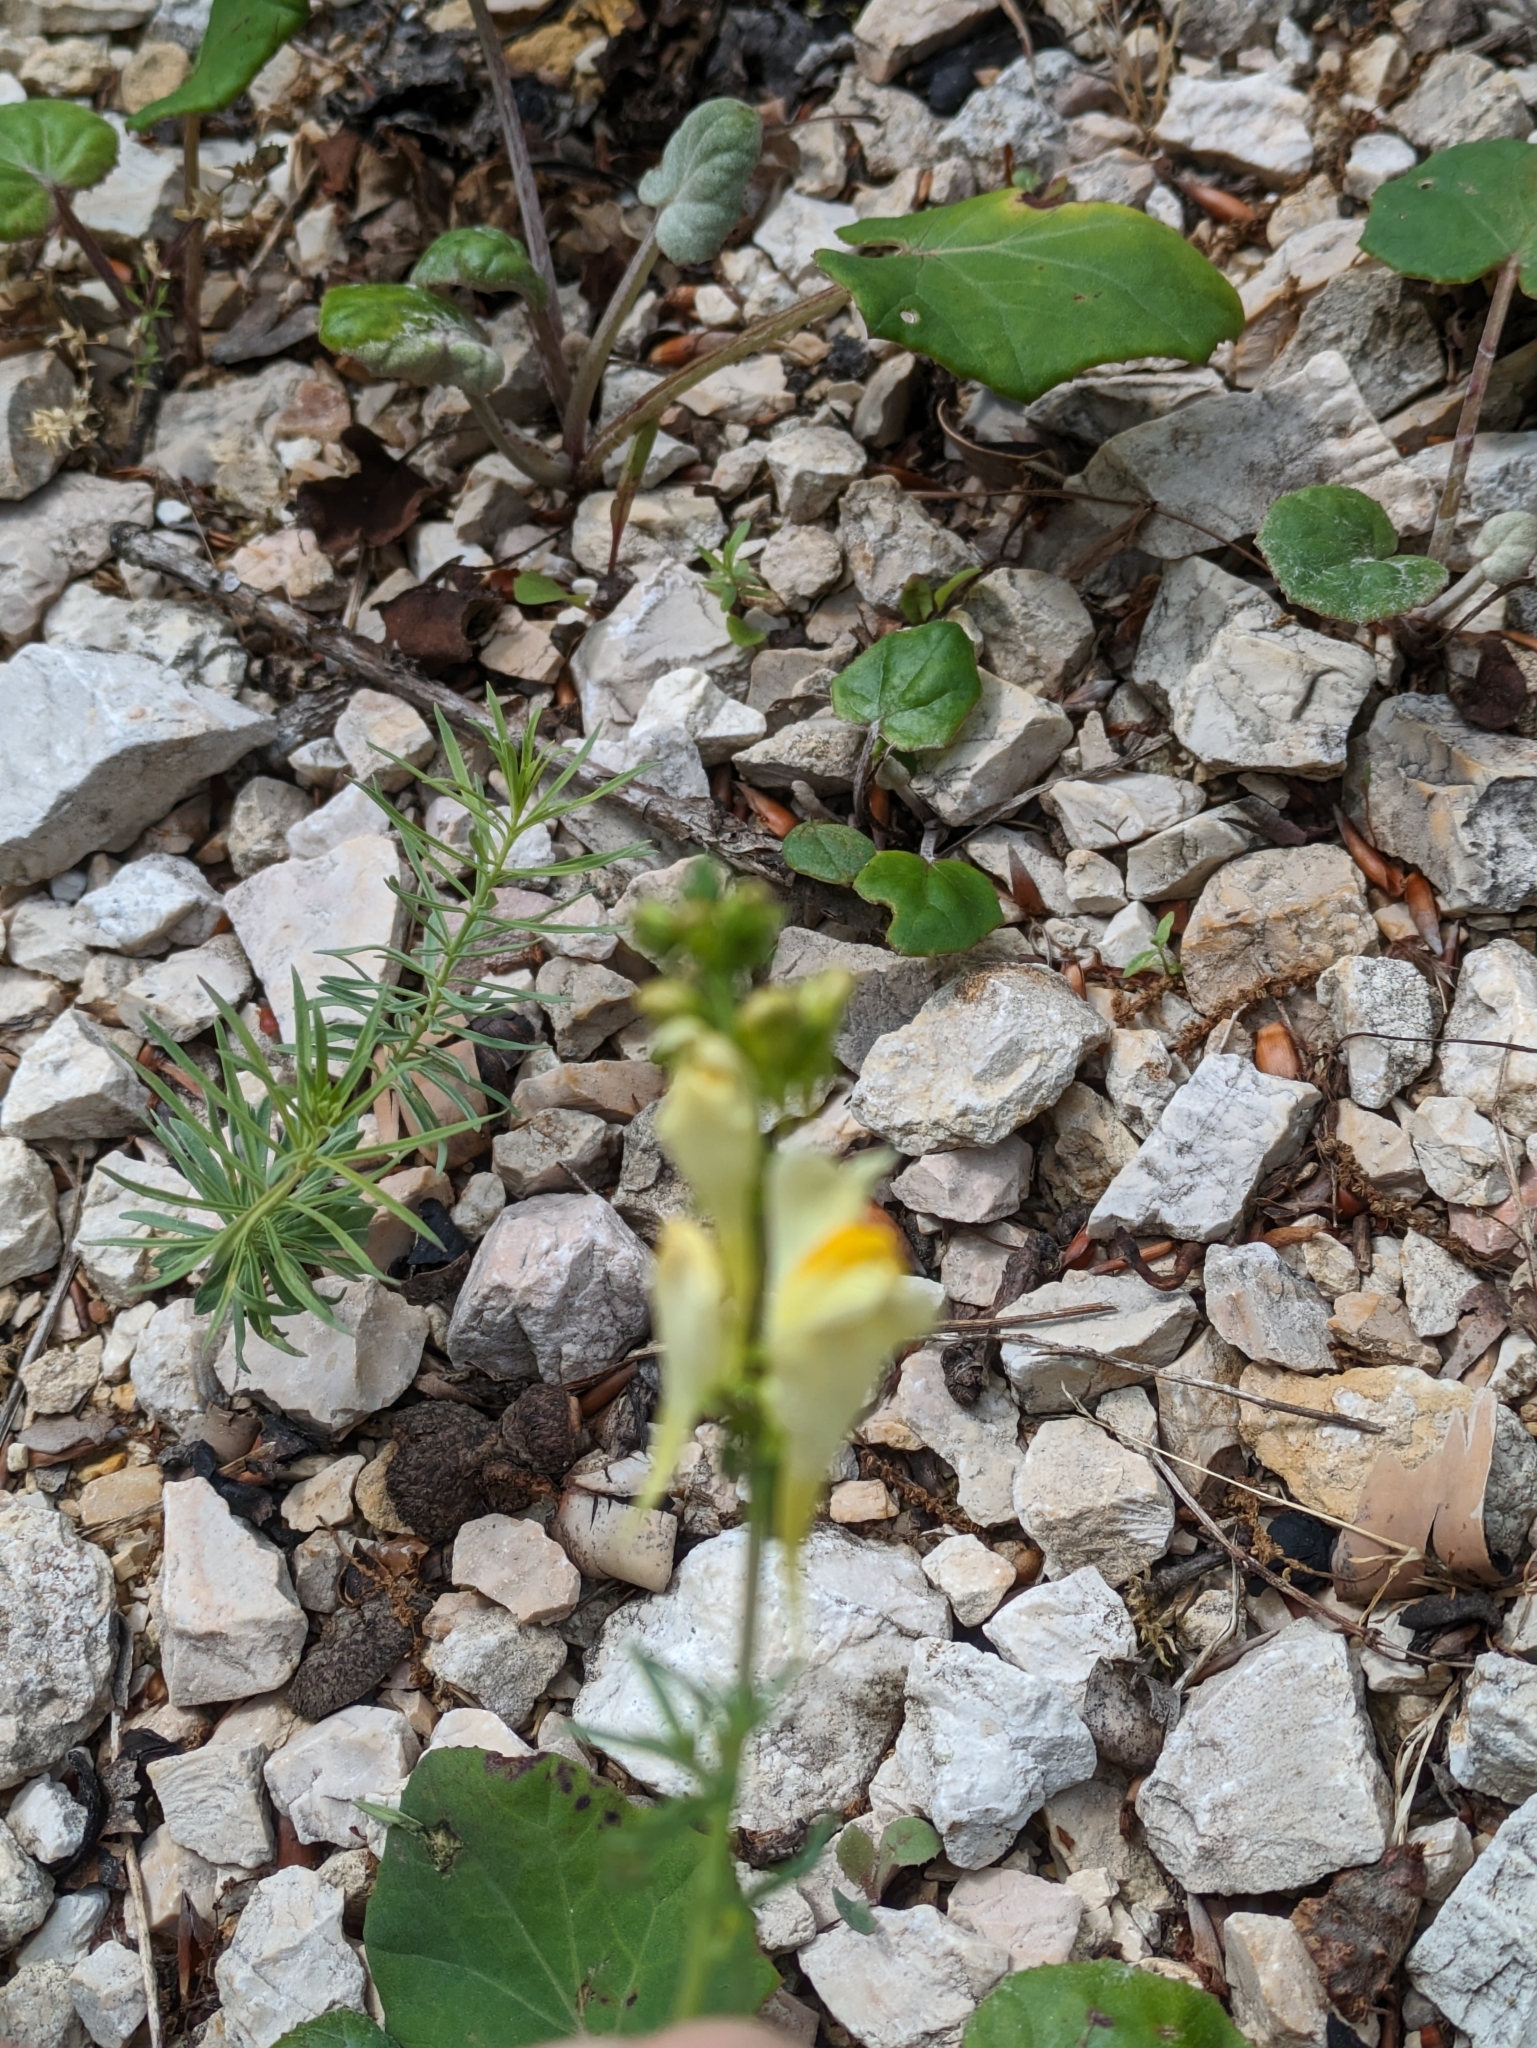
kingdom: Plantae
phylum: Tracheophyta
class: Magnoliopsida
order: Lamiales
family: Plantaginaceae
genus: Linaria
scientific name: Linaria vulgaris
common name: Butter and eggs
